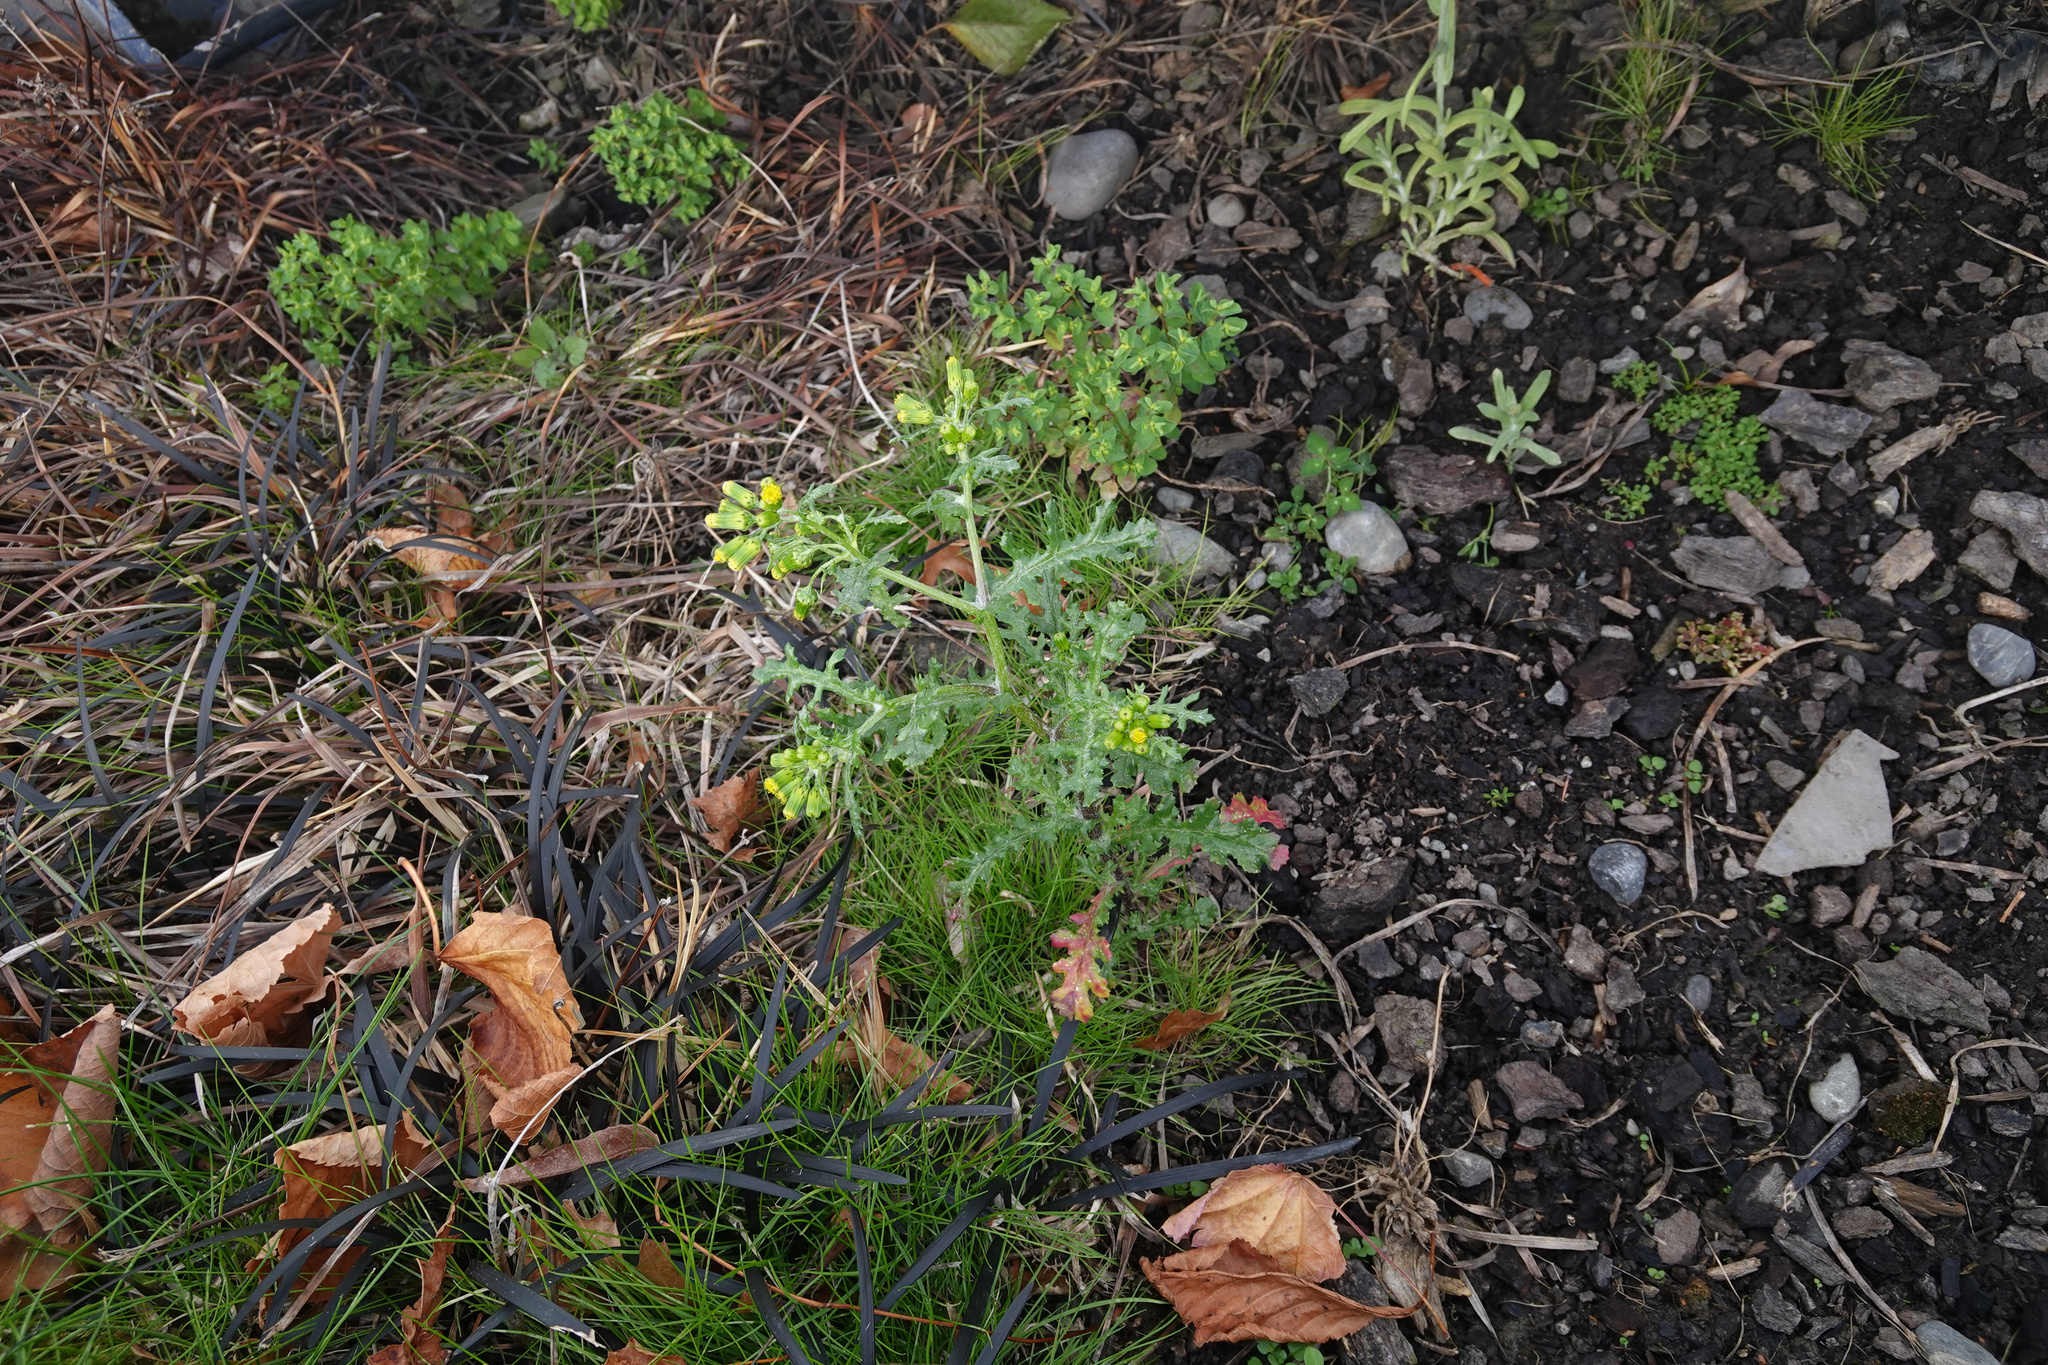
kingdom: Plantae
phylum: Tracheophyta
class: Magnoliopsida
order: Asterales
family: Asteraceae
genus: Senecio
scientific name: Senecio vulgaris
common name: Old-man-in-the-spring
